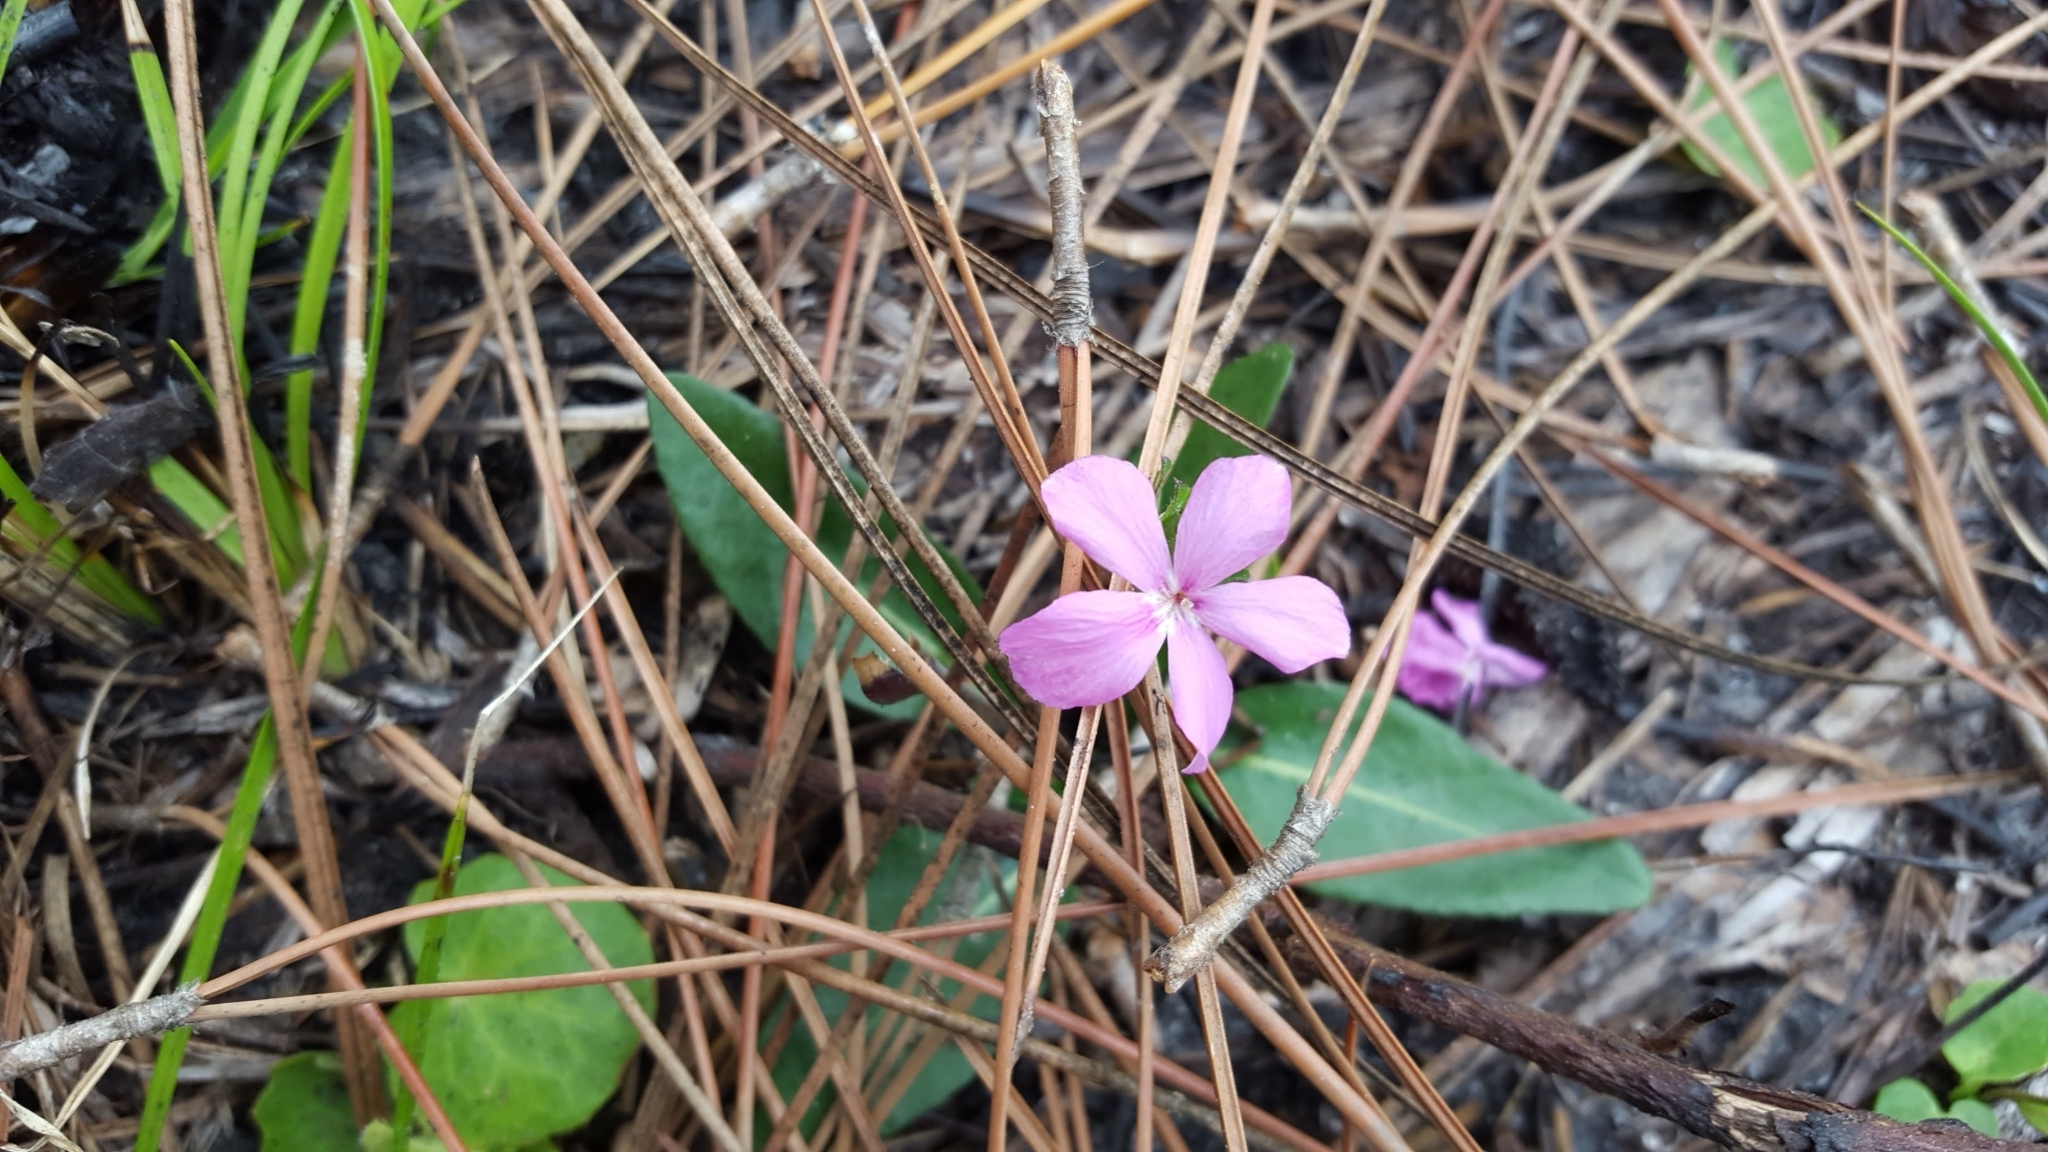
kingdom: Plantae
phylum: Tracheophyta
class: Magnoliopsida
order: Lamiales
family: Acanthaceae
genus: Stenandrium
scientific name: Stenandrium dulce
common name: Pinklet
